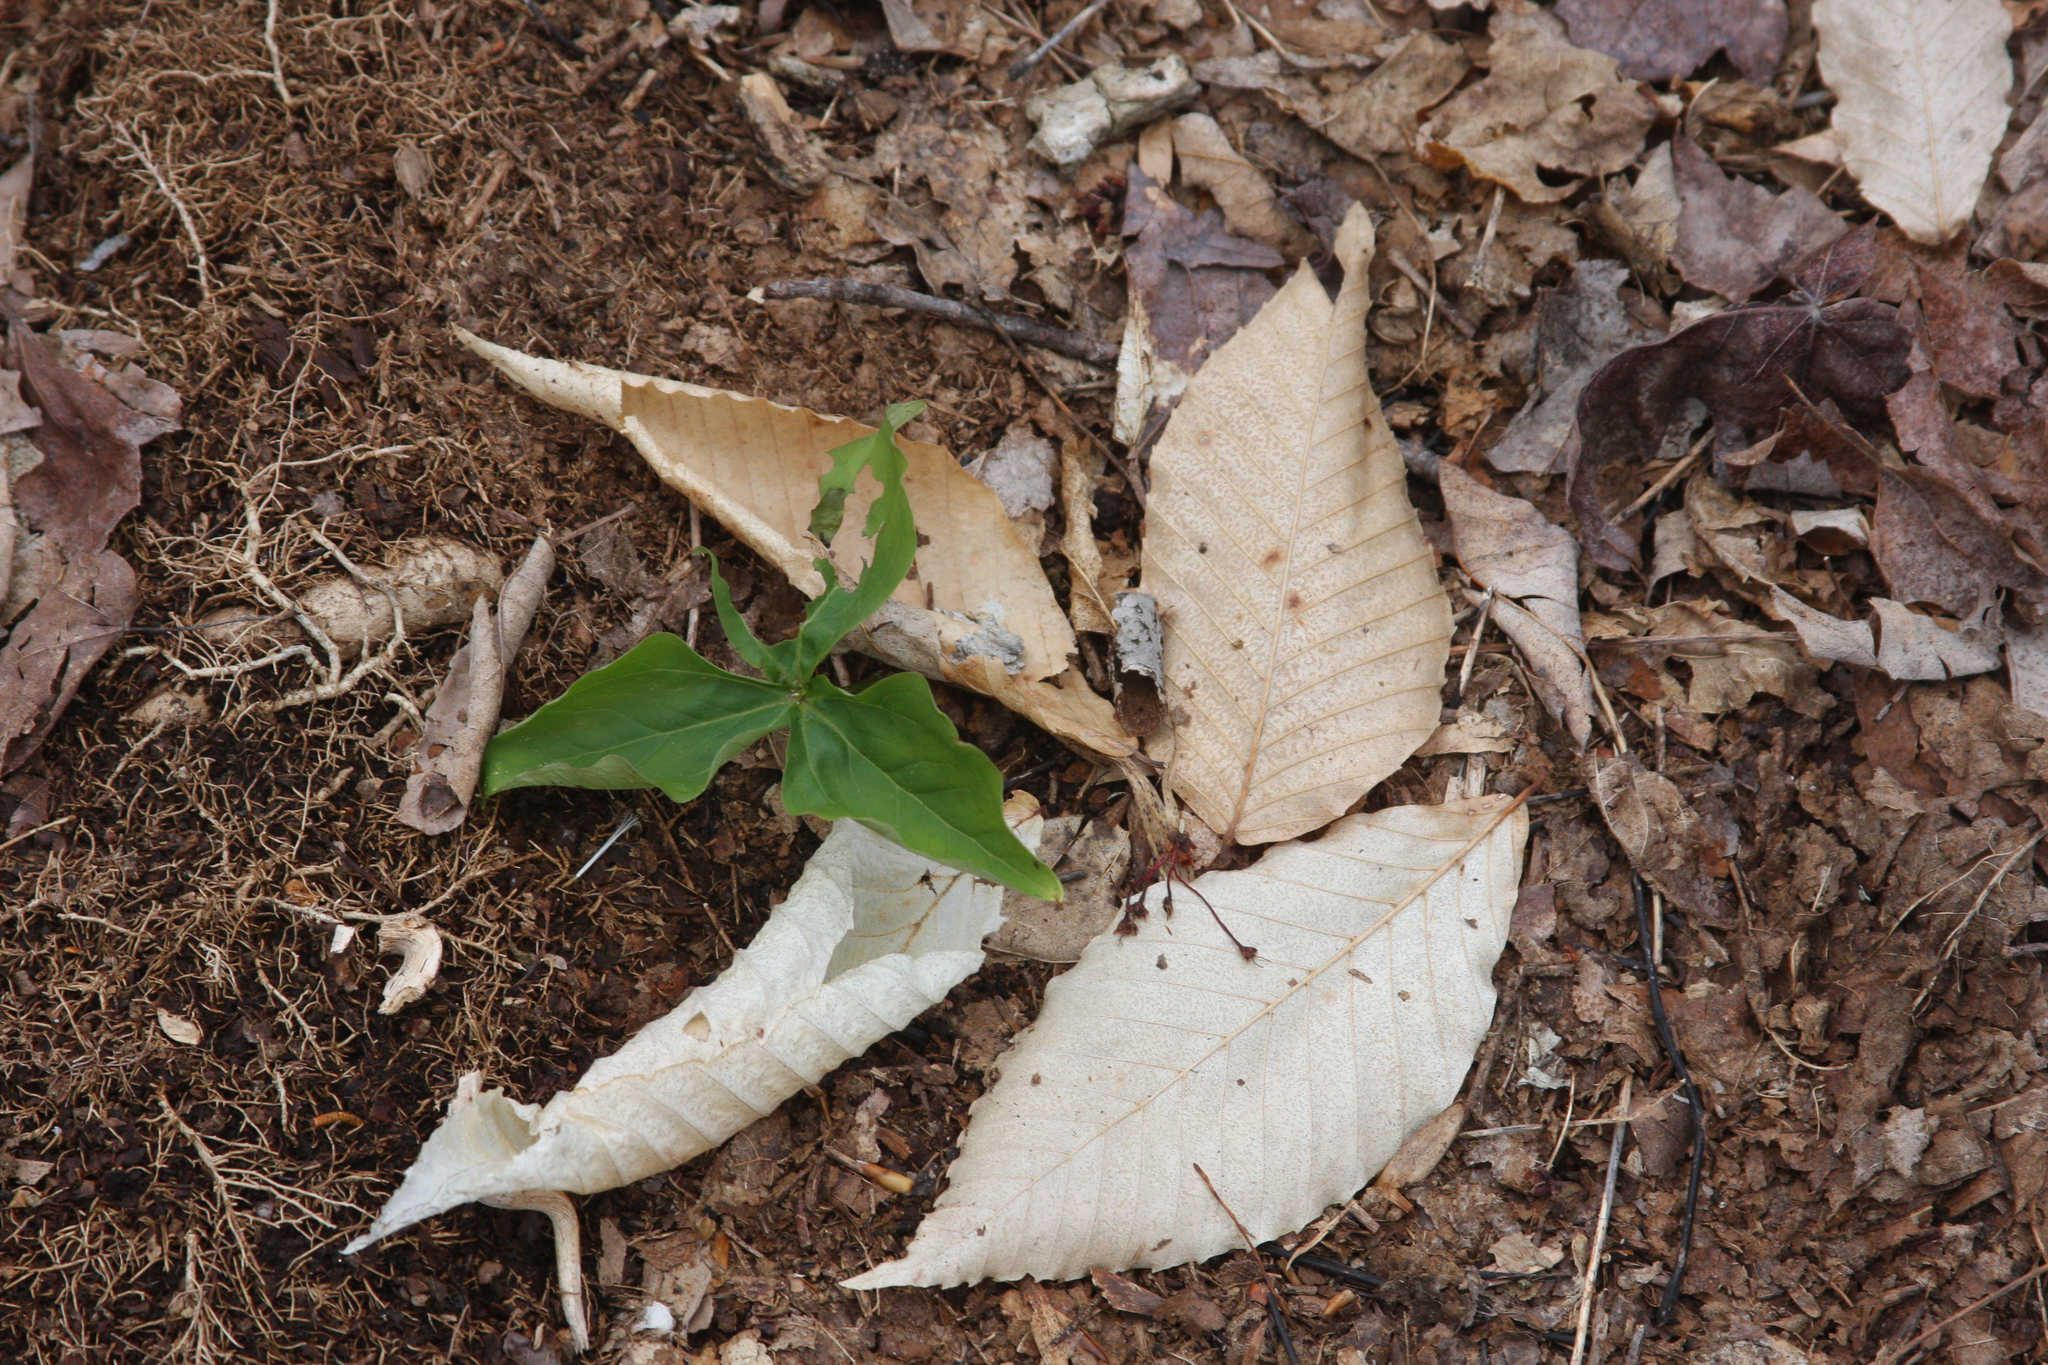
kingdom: Plantae
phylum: Tracheophyta
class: Magnoliopsida
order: Fagales
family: Fagaceae
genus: Fagus
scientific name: Fagus grandifolia
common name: American beech
